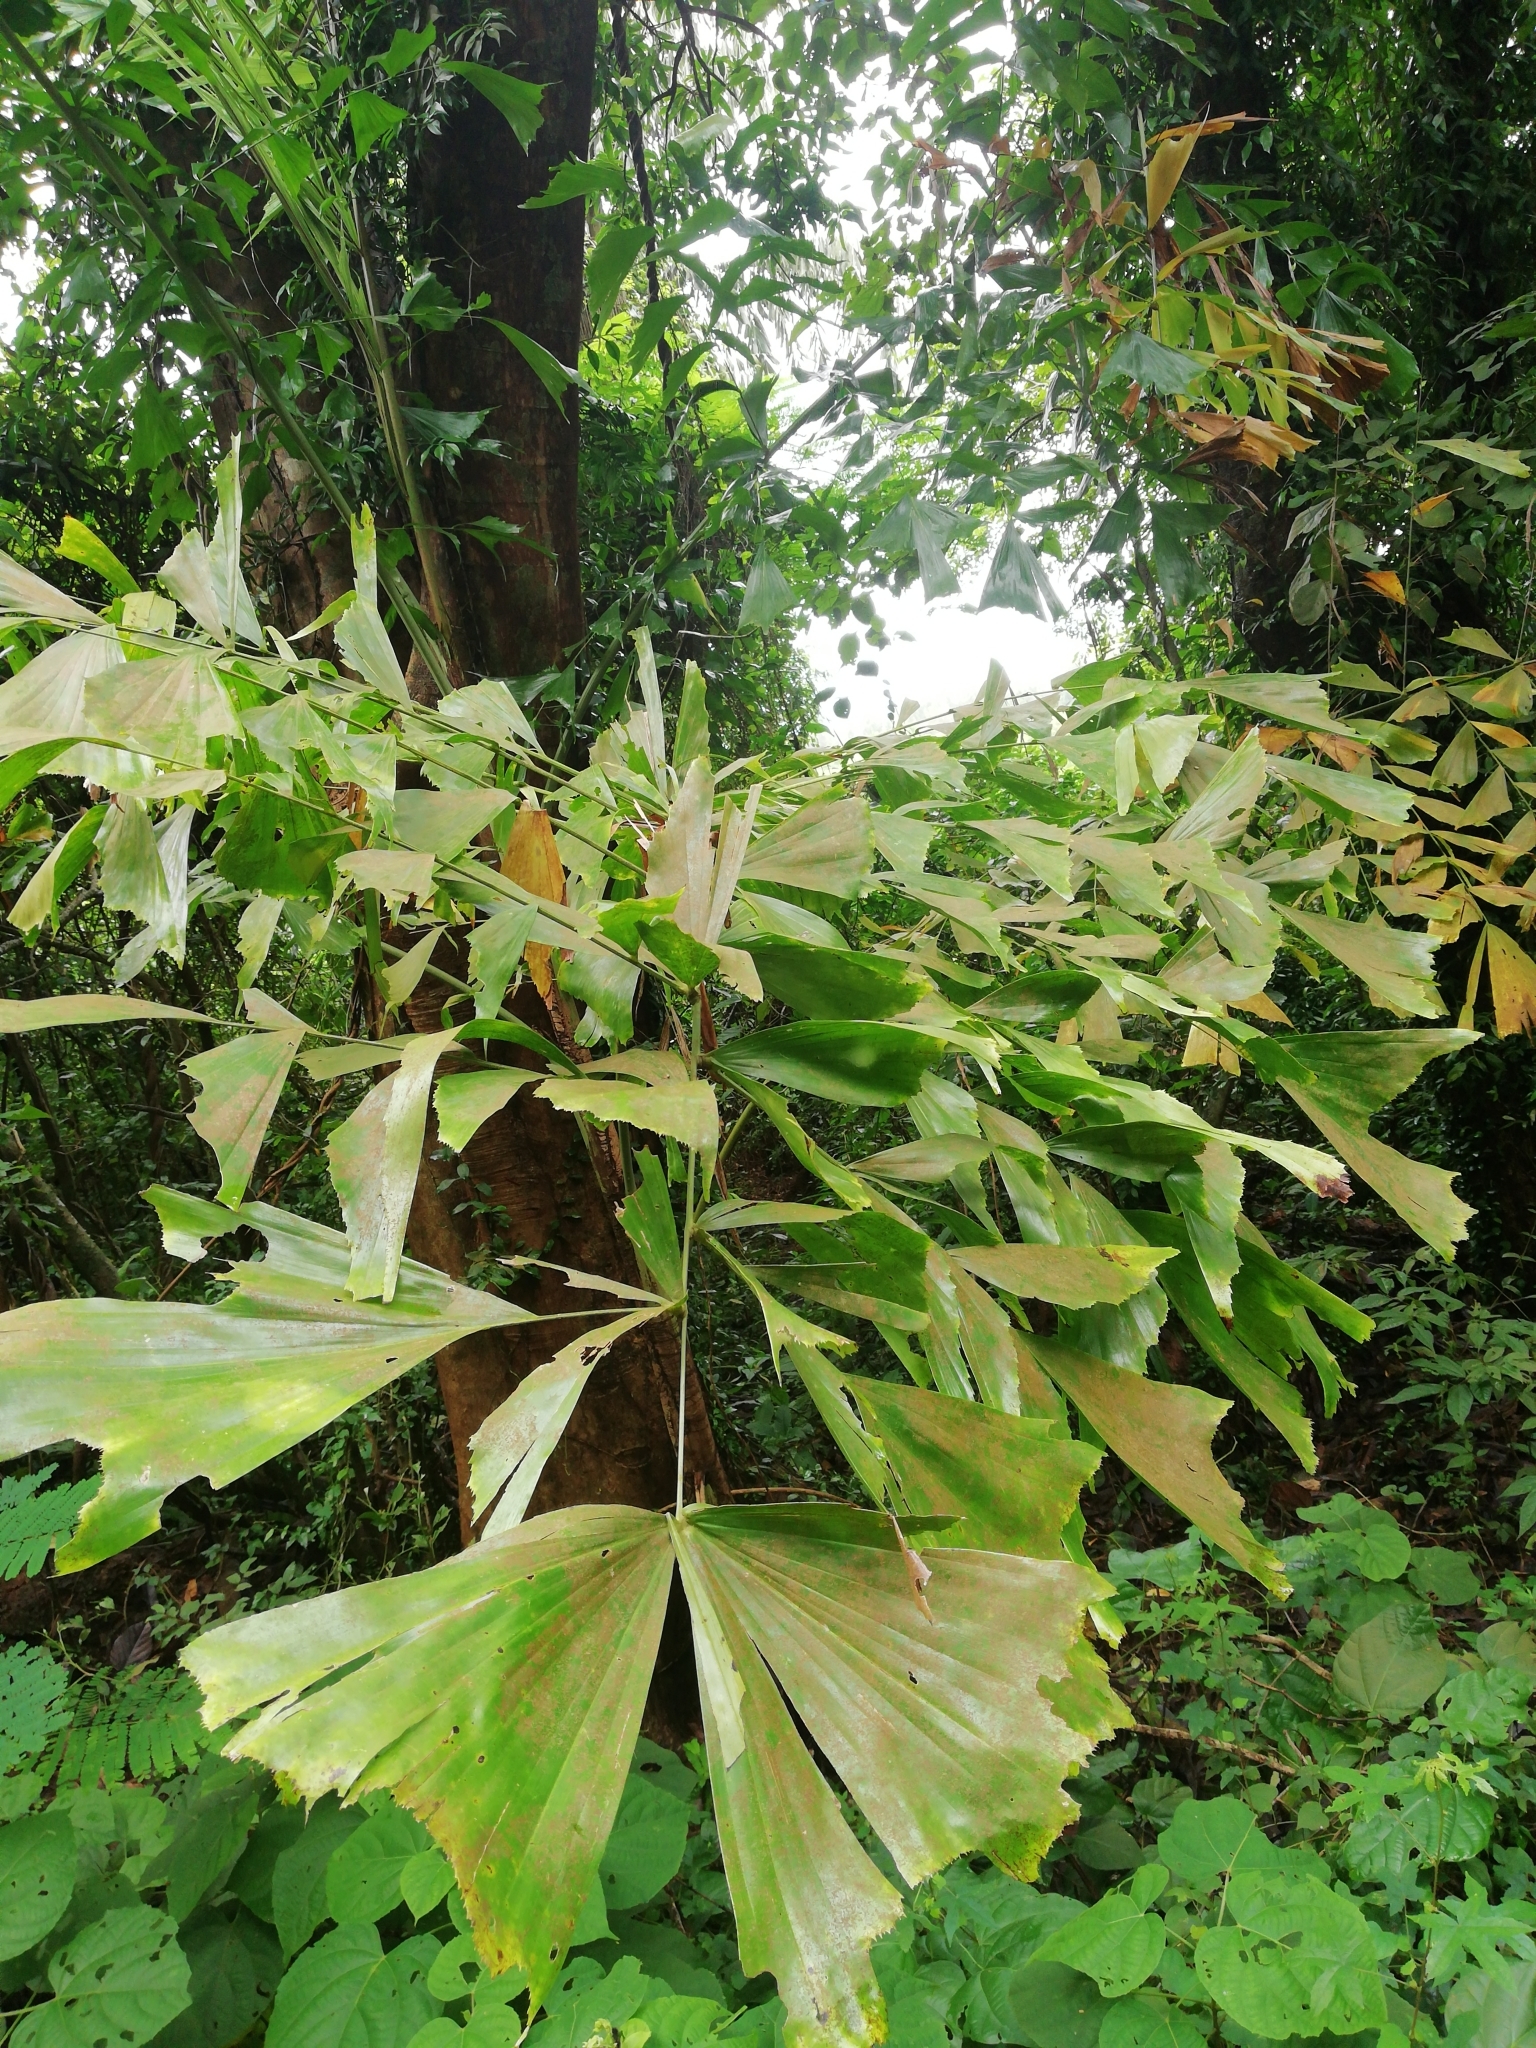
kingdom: Plantae
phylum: Tracheophyta
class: Liliopsida
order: Arecales
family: Arecaceae
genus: Caryota
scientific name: Caryota urens
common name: Jaggery palm
